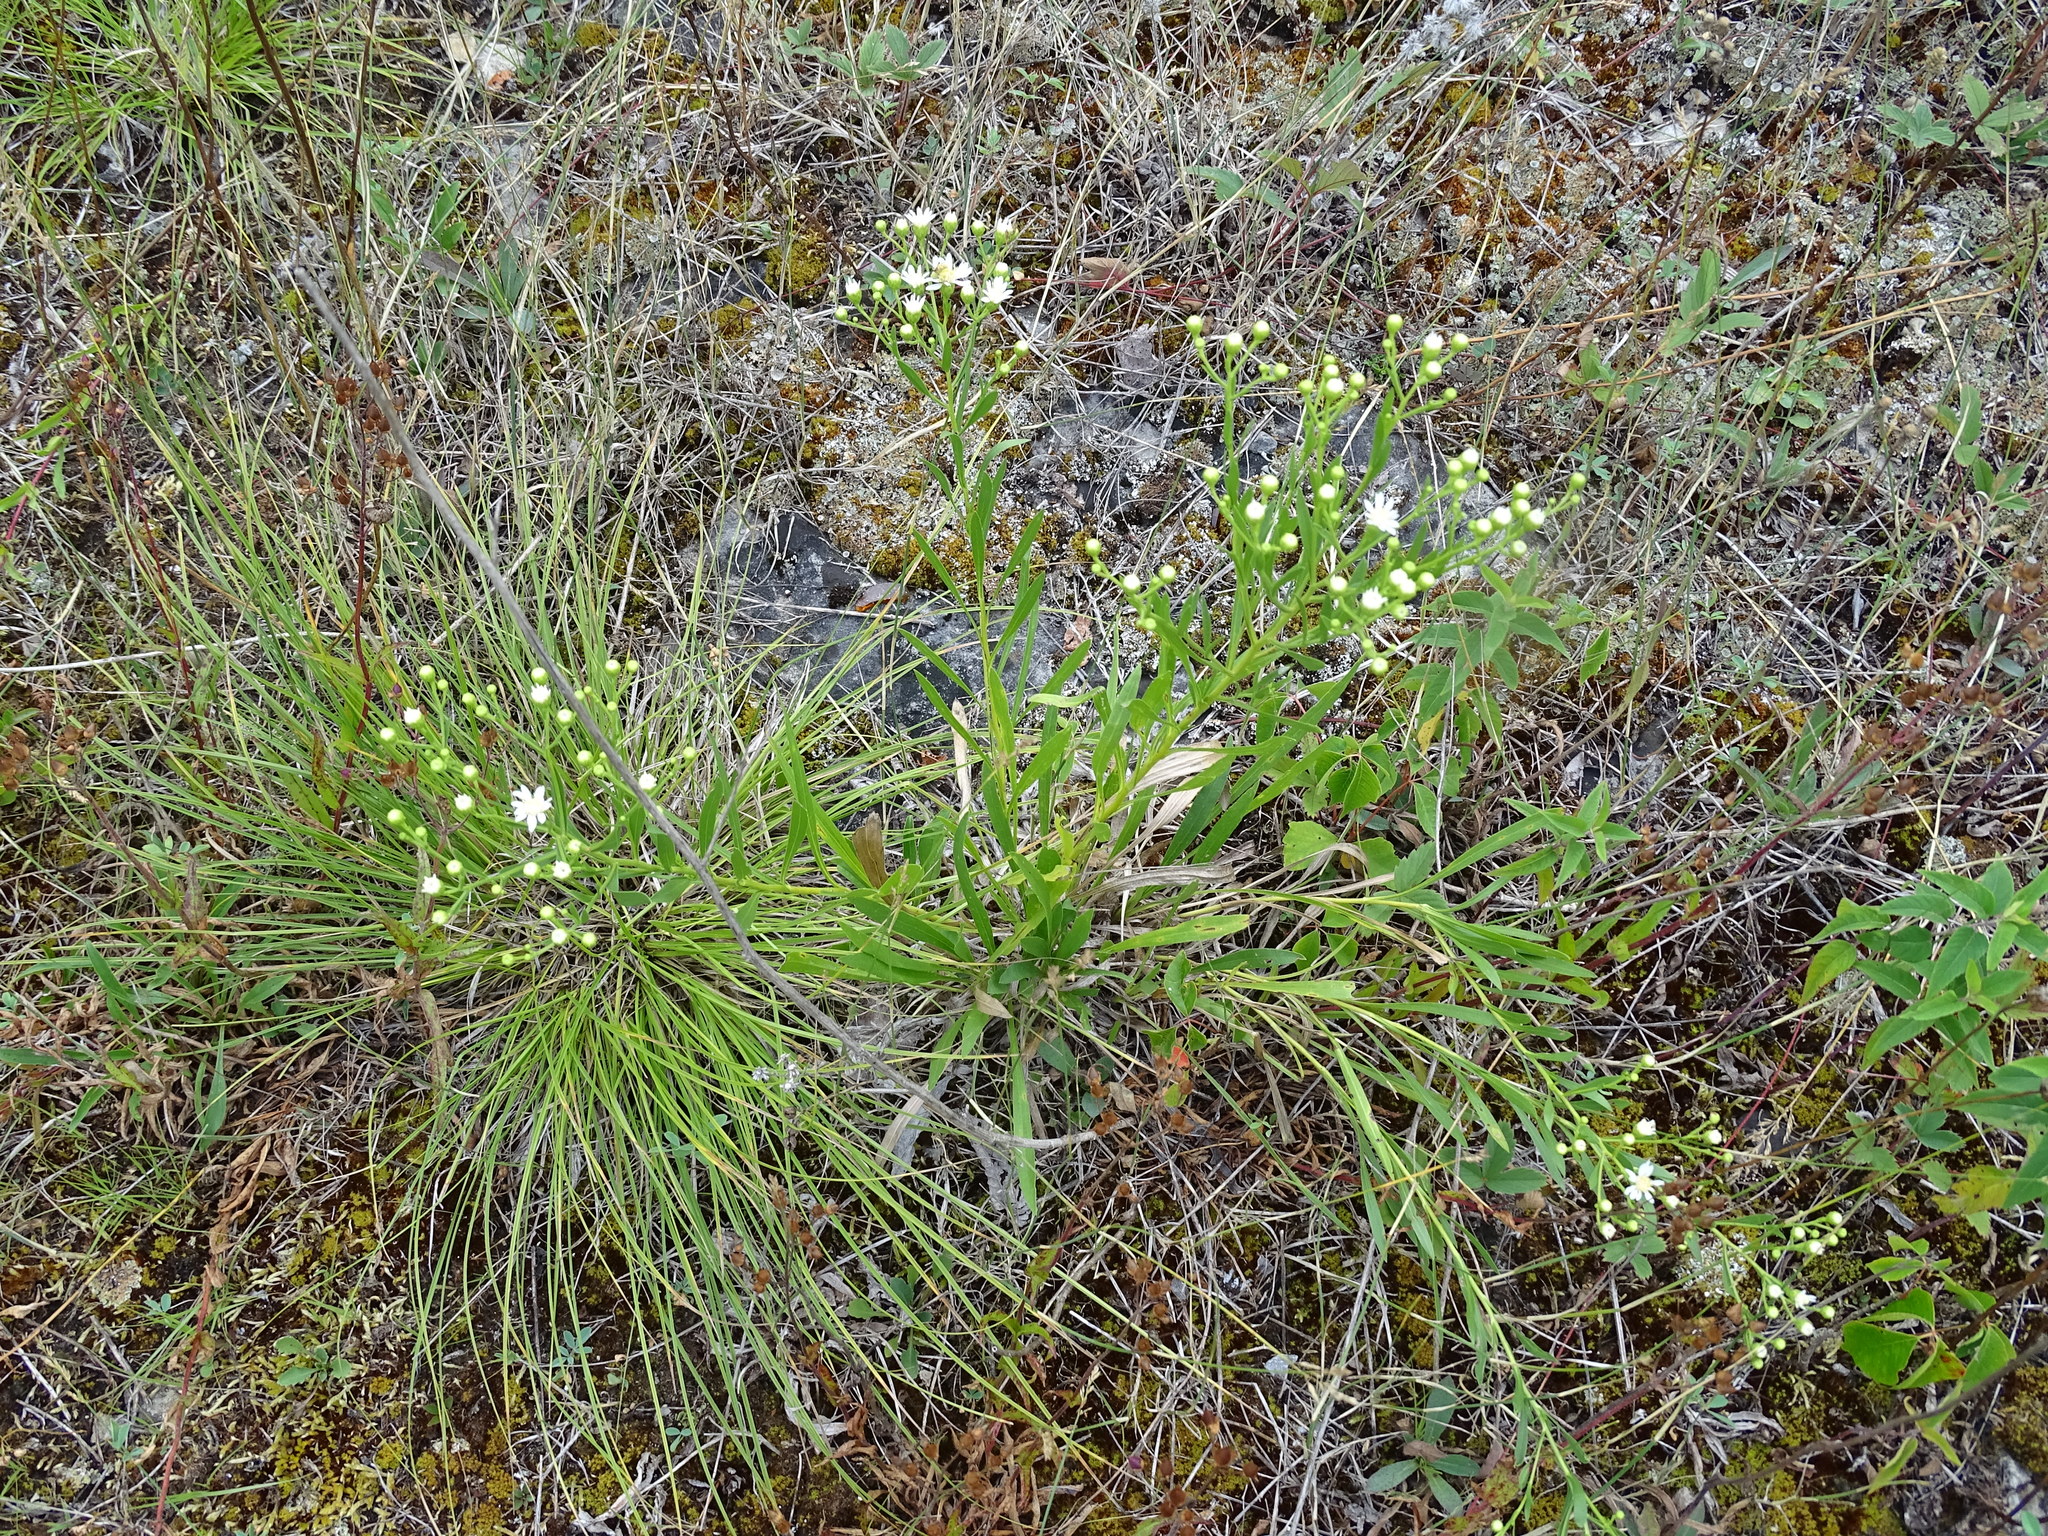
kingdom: Plantae
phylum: Tracheophyta
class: Magnoliopsida
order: Asterales
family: Asteraceae
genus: Solidago
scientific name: Solidago ptarmicoides
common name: White flat-top goldenrod
